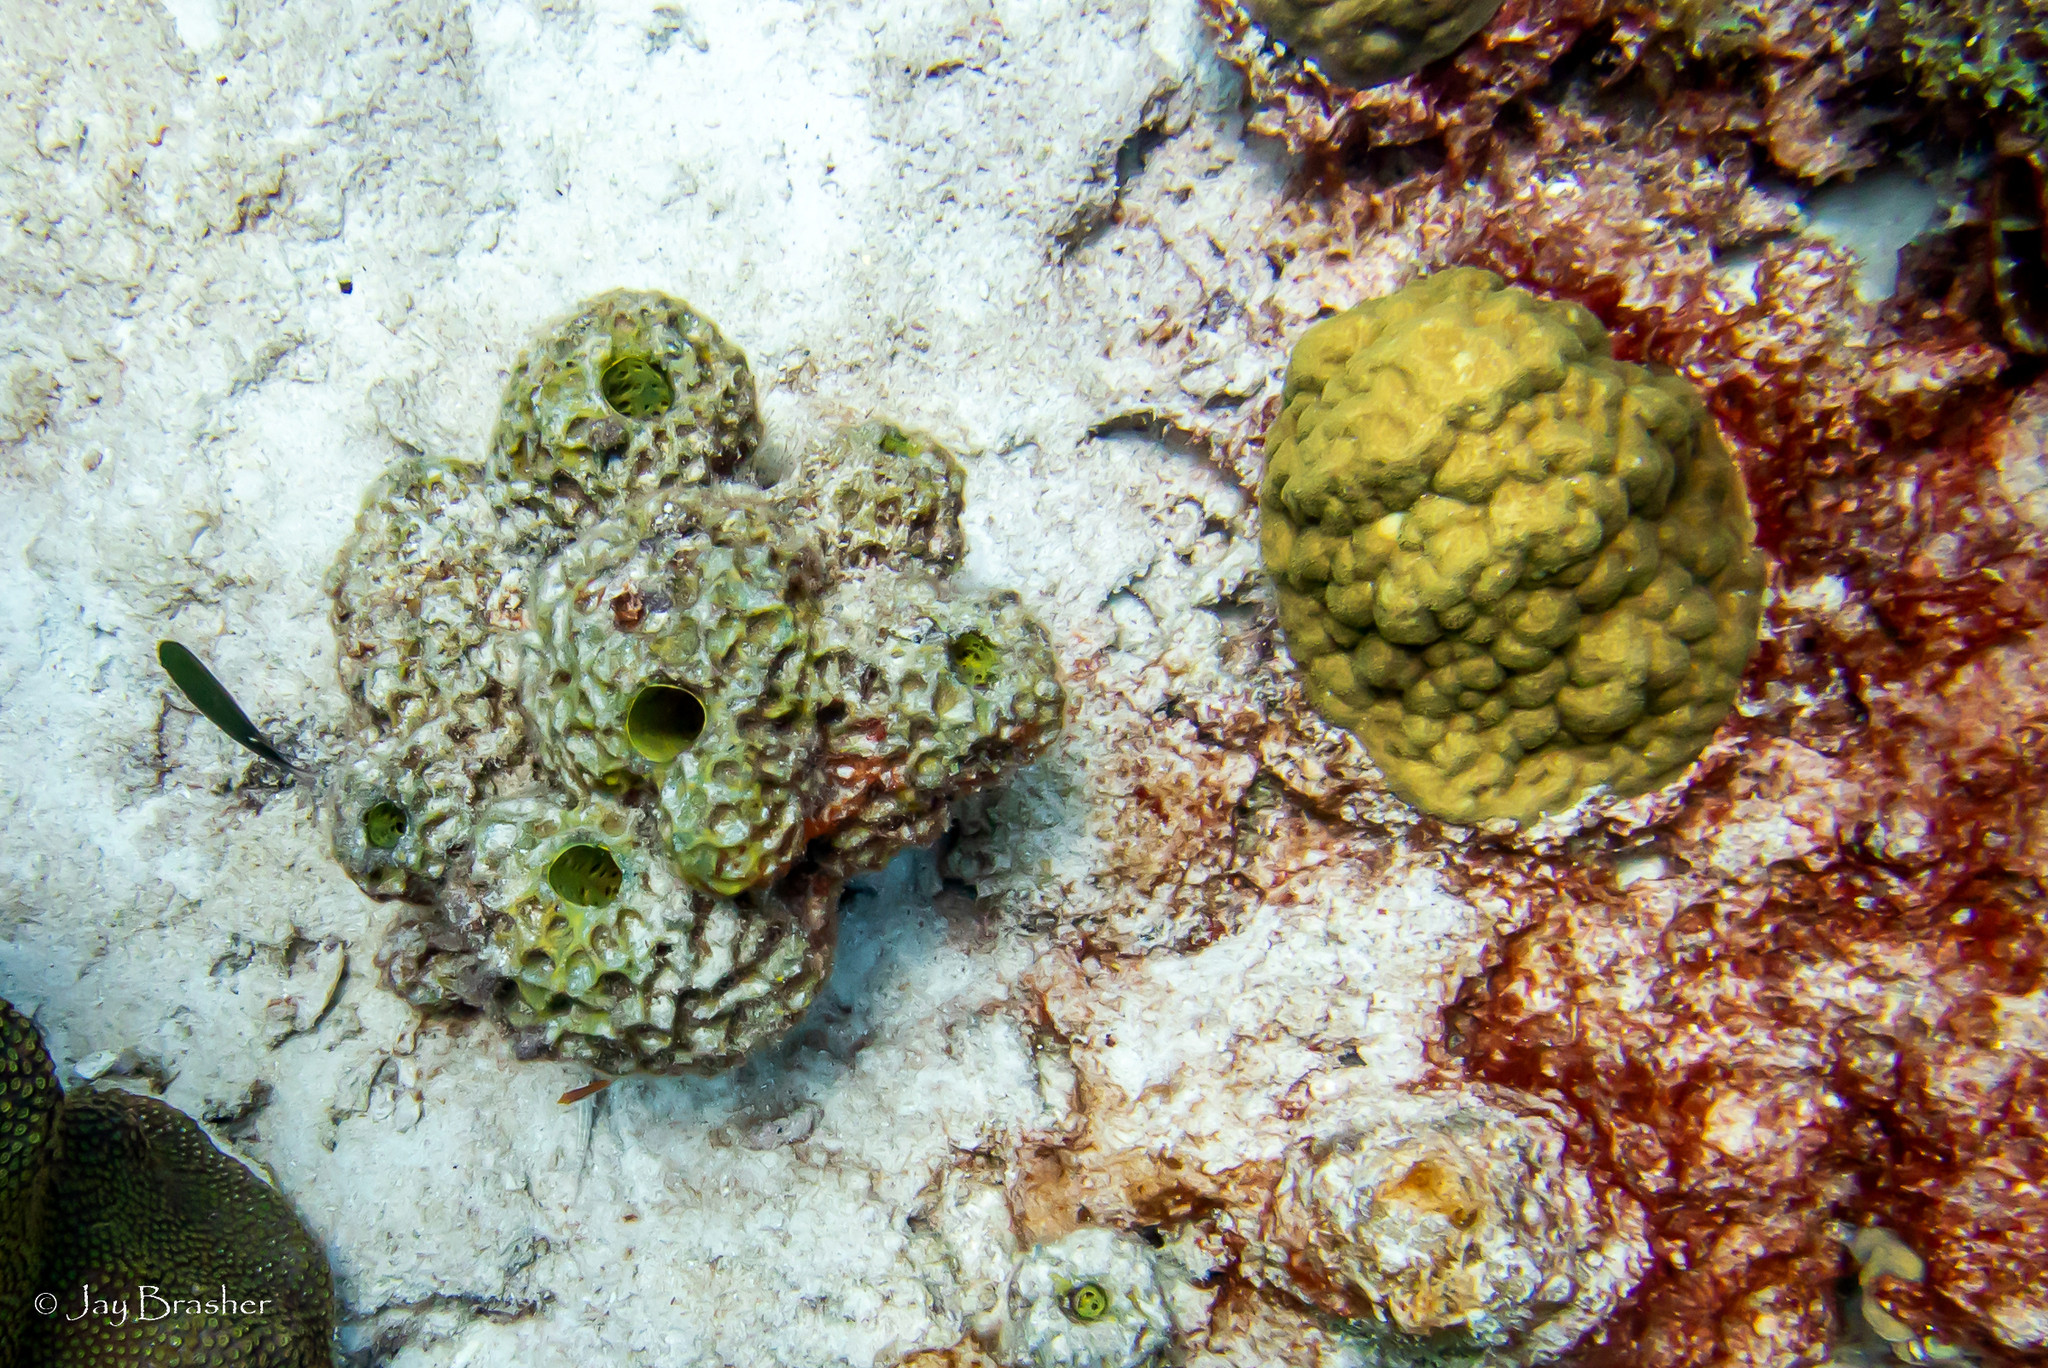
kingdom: Animalia
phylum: Porifera
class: Demospongiae
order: Verongiida
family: Aplysinidae
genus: Verongula
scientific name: Verongula rigida
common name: Pitted sponge
